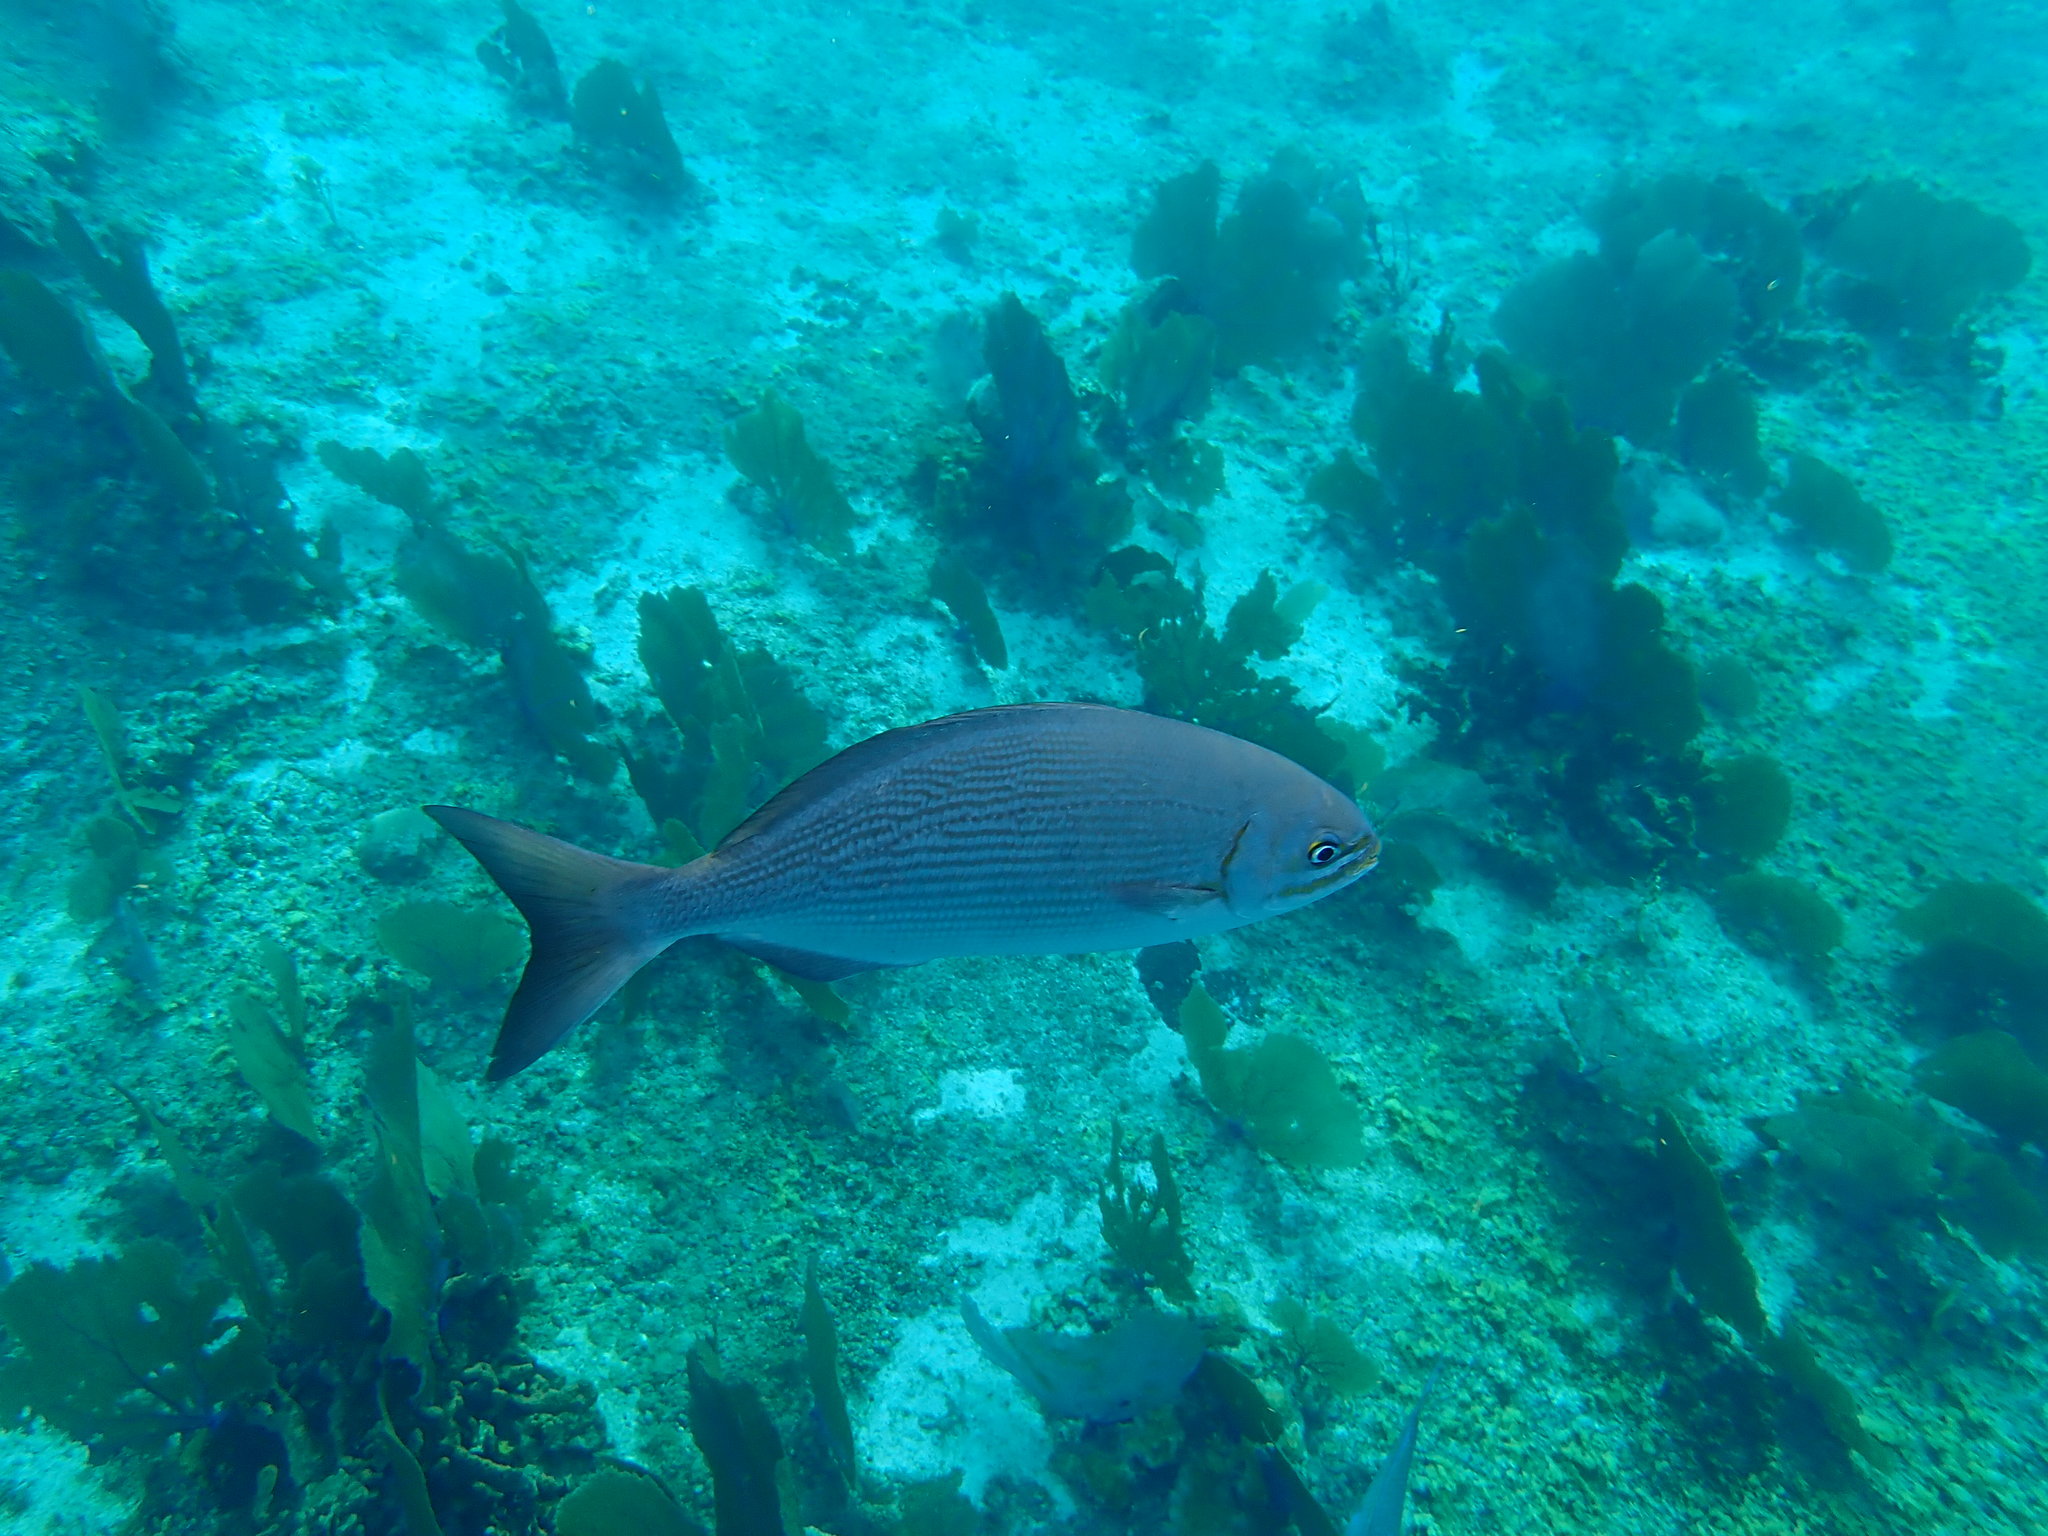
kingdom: Animalia
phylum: Chordata
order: Perciformes
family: Kyphosidae
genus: Kyphosus
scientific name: Kyphosus vaigiensis
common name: Brassy chub
